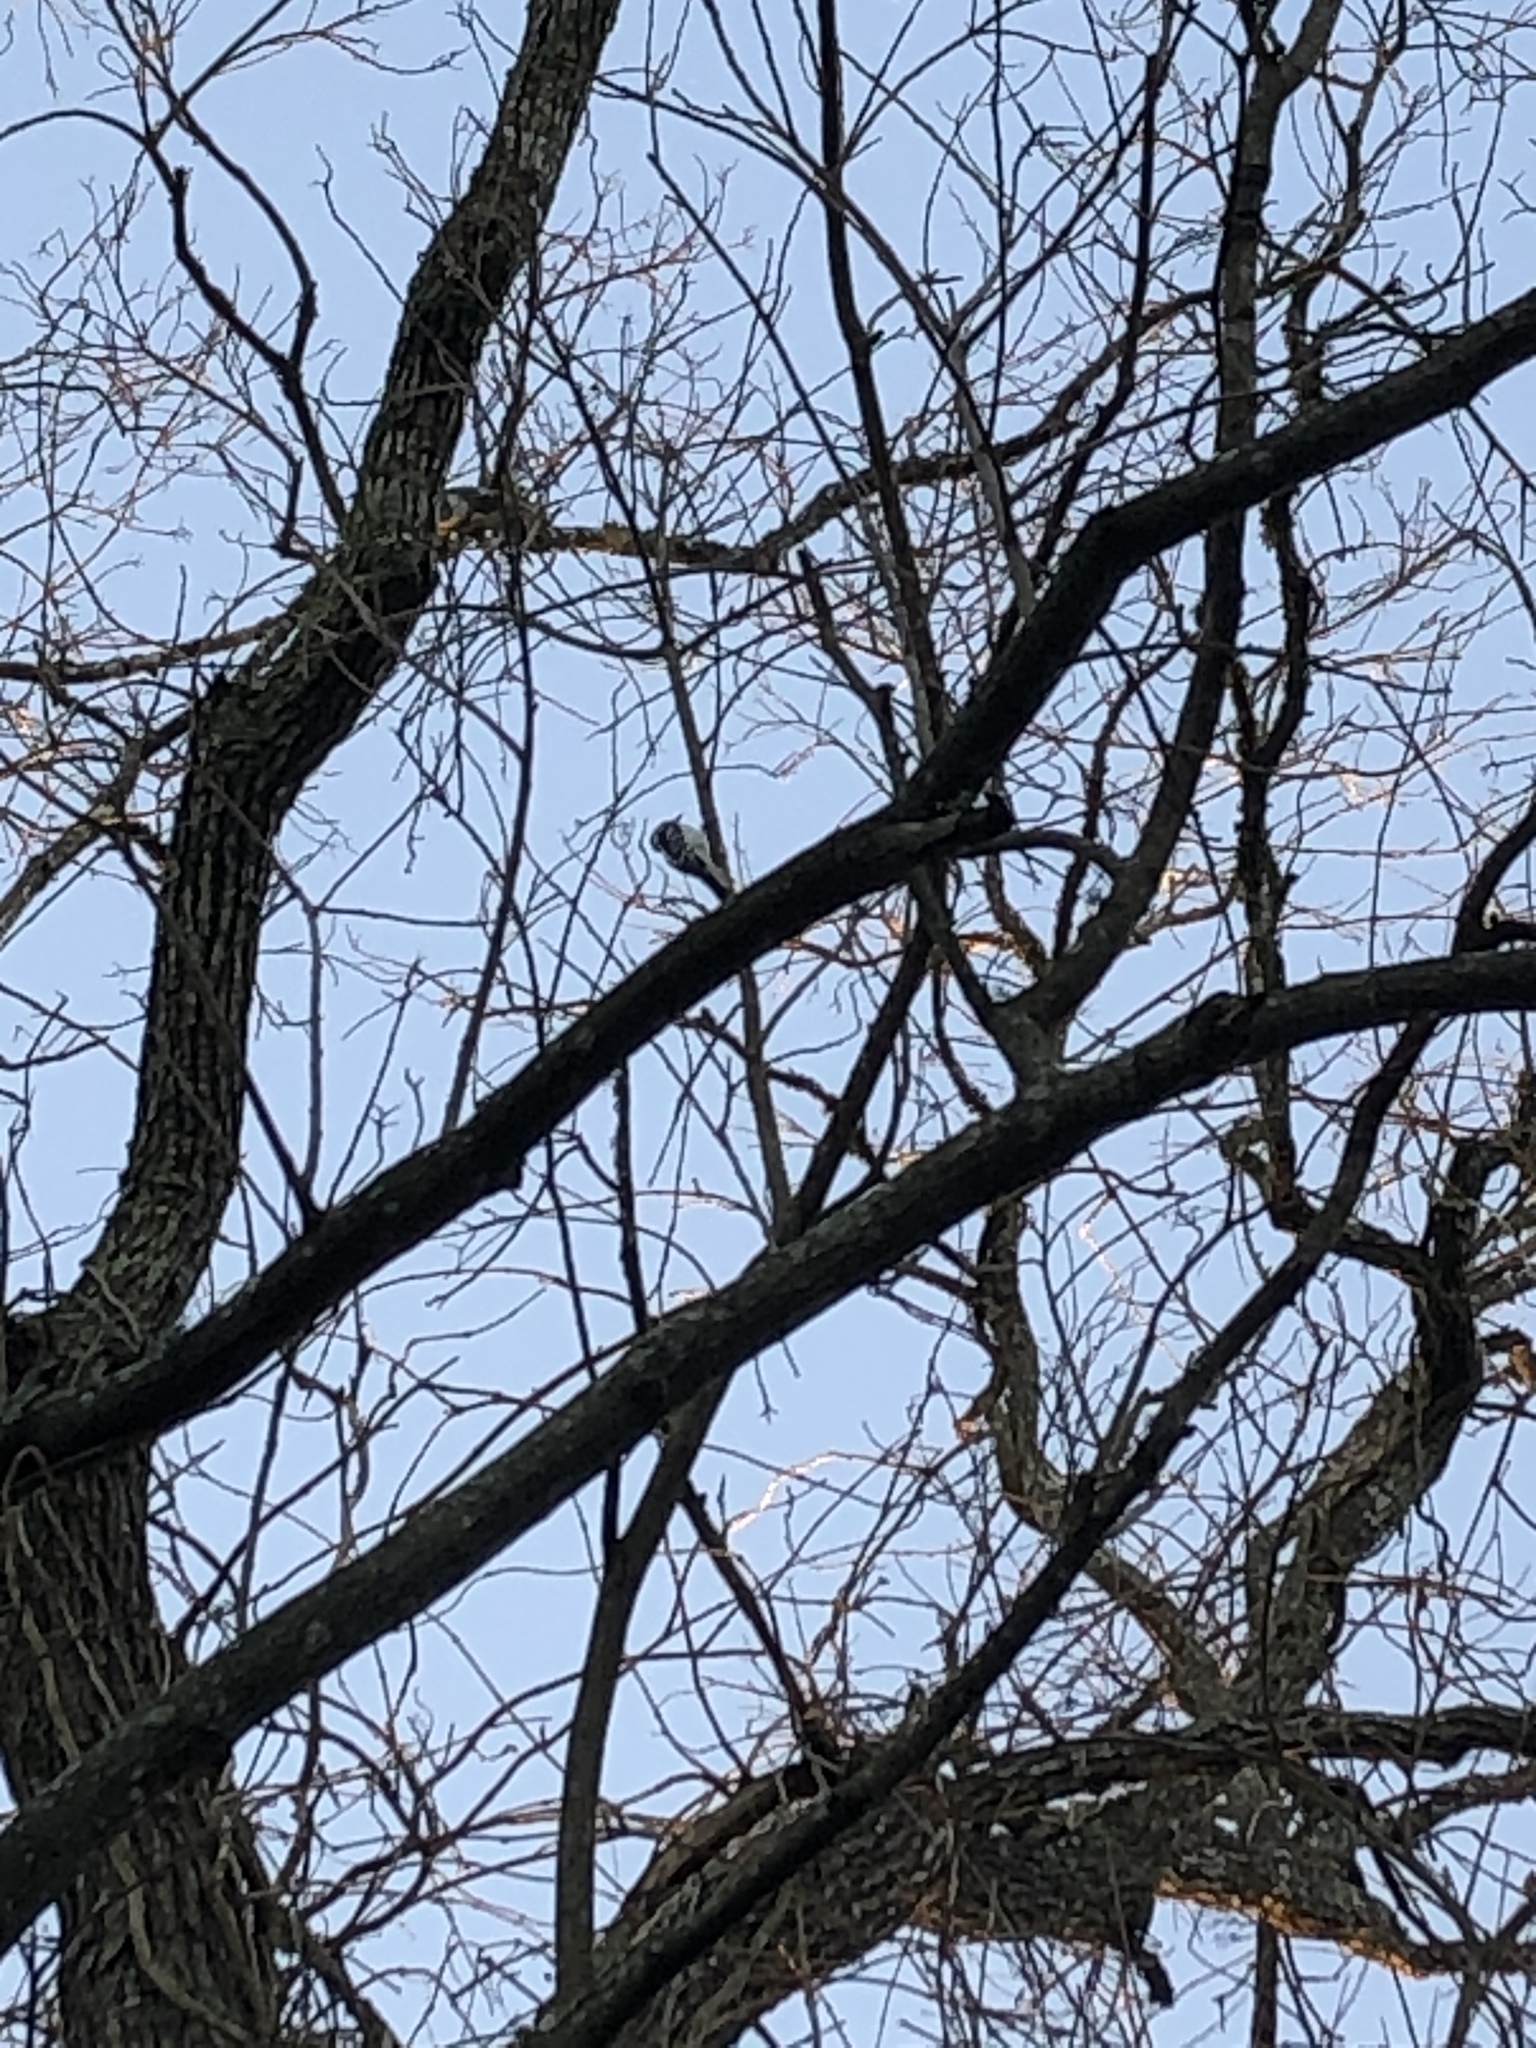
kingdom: Animalia
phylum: Chordata
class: Aves
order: Piciformes
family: Picidae
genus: Dryobates
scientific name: Dryobates pubescens
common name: Downy woodpecker
